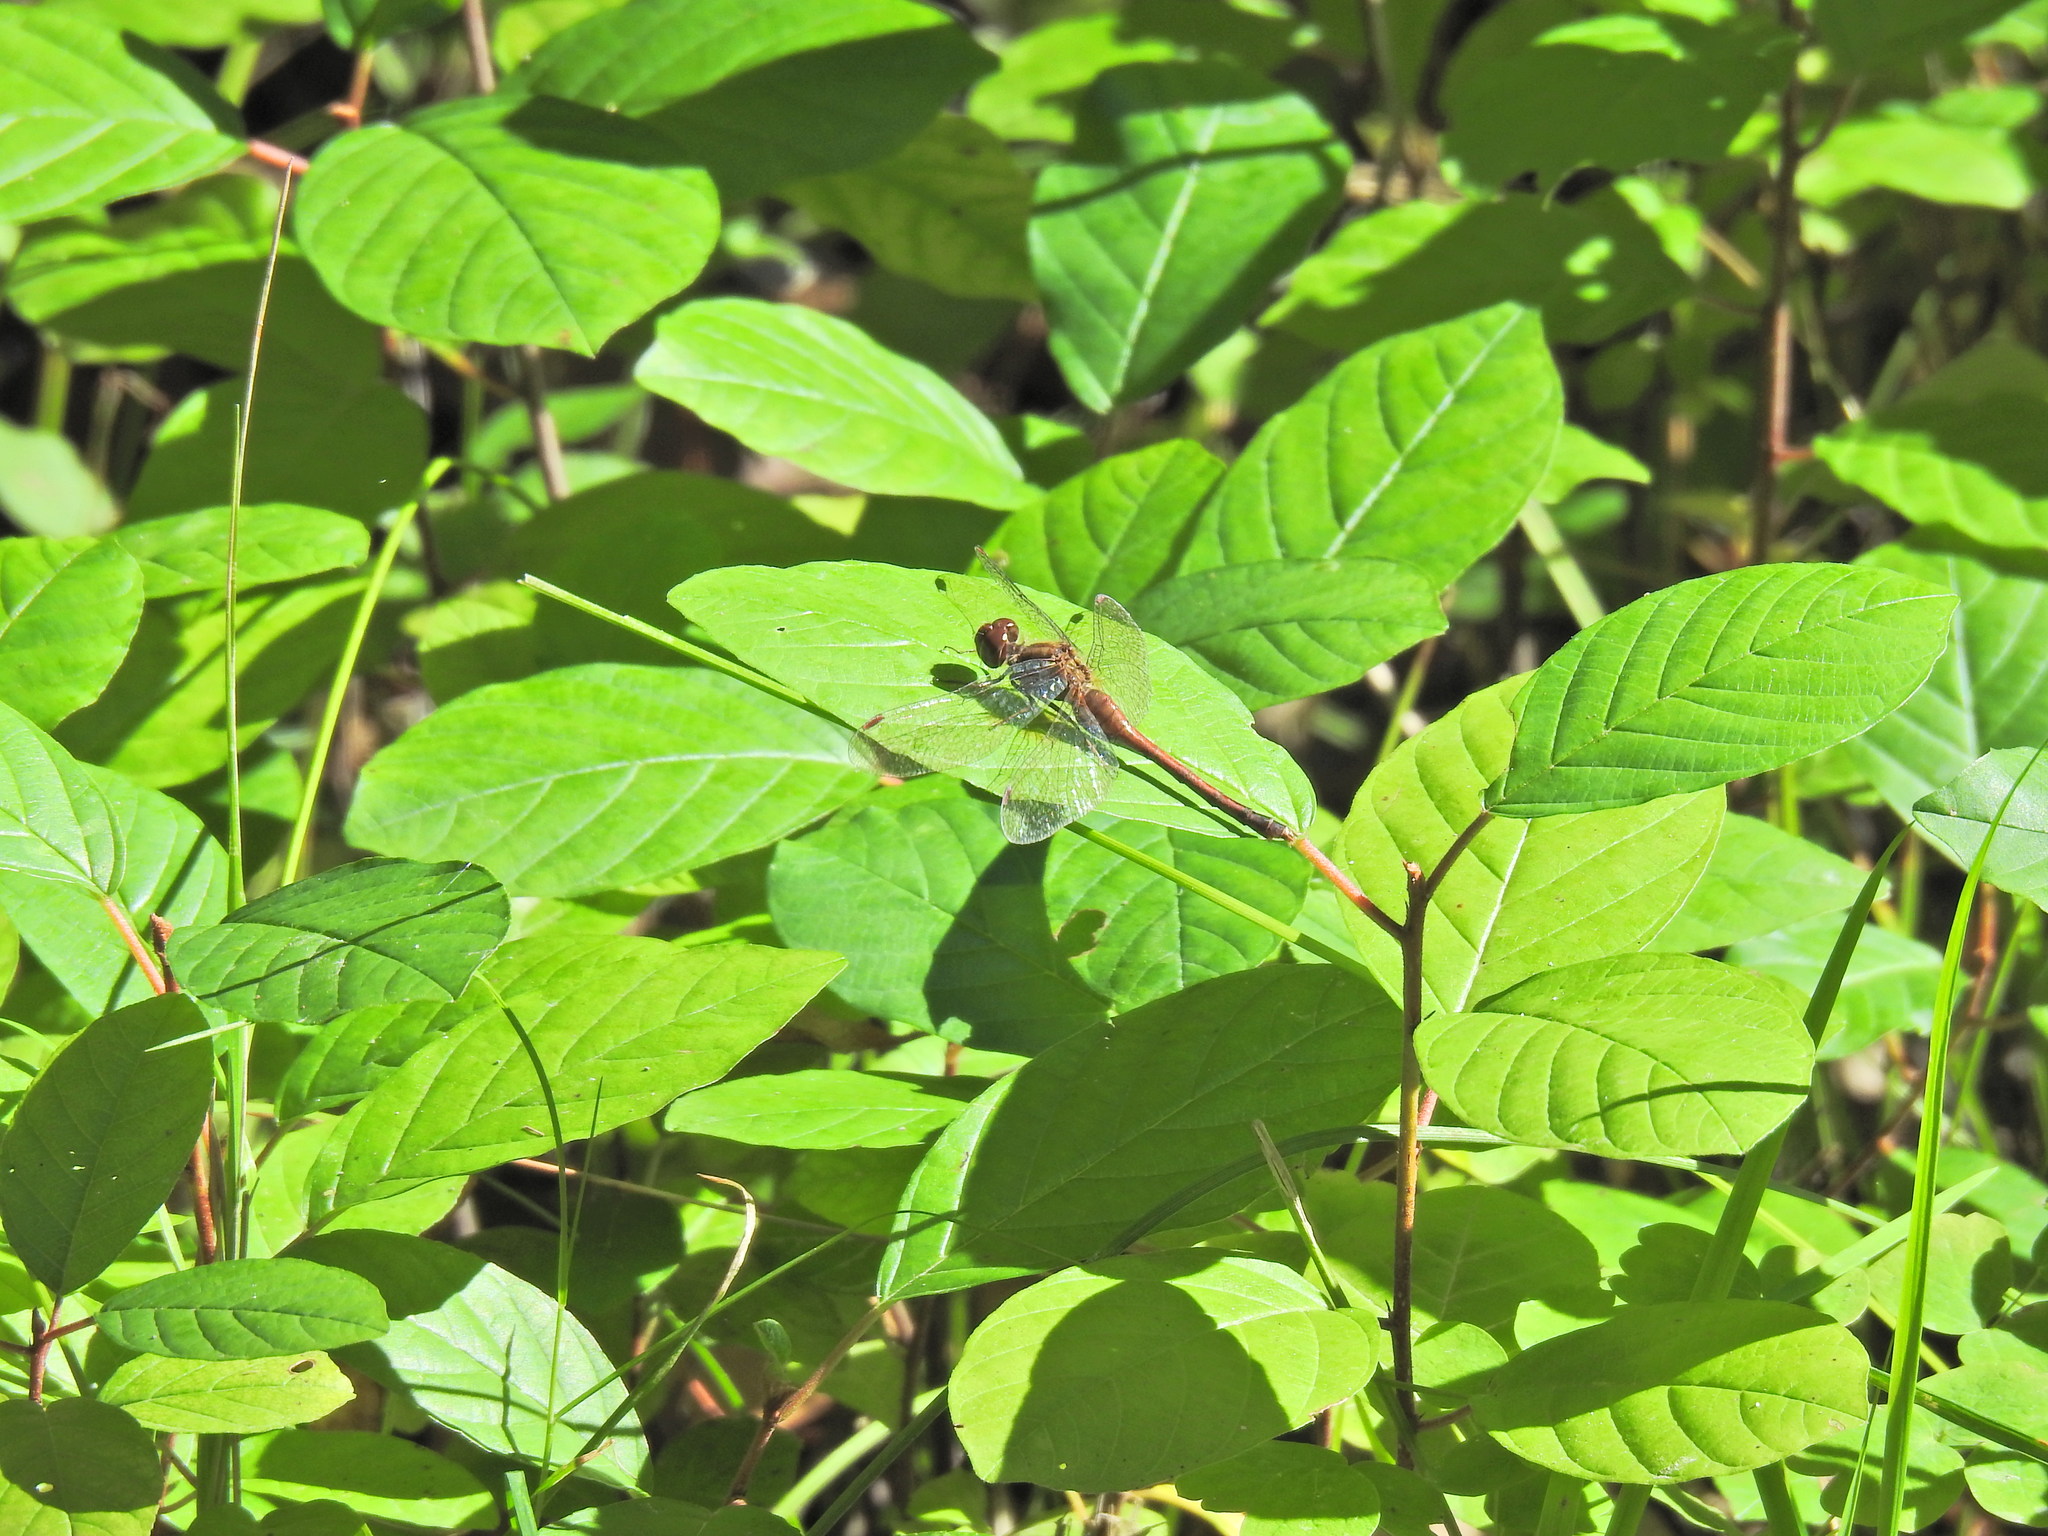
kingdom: Animalia
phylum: Arthropoda
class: Insecta
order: Odonata
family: Libellulidae
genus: Sympetrum
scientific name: Sympetrum vicinum
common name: Autumn meadowhawk
